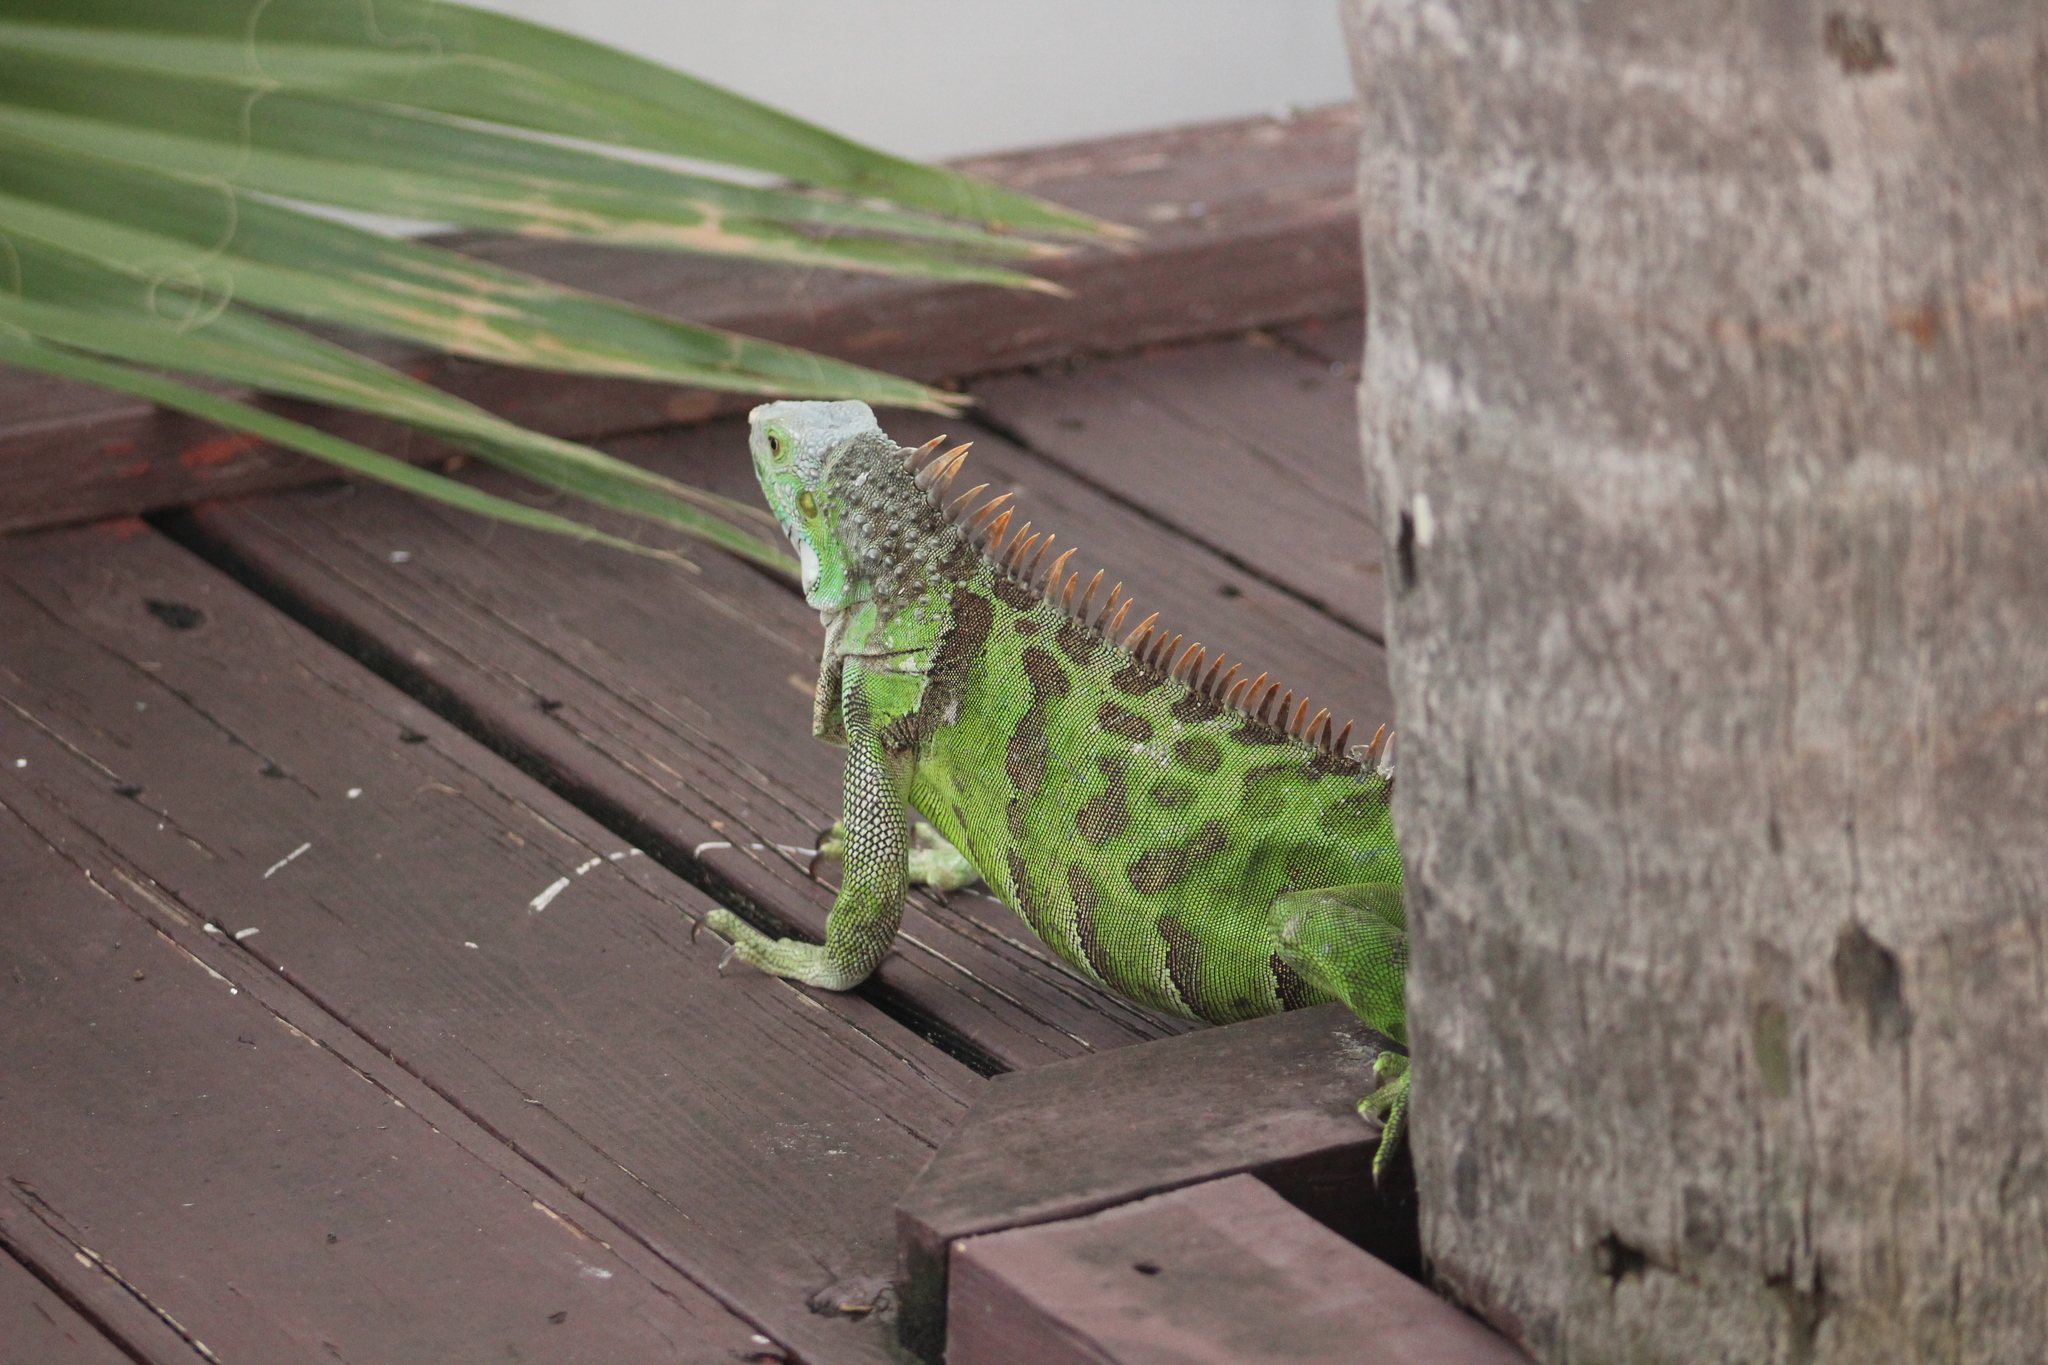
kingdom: Animalia
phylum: Chordata
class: Squamata
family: Iguanidae
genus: Iguana
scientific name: Iguana iguana
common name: Green iguana
